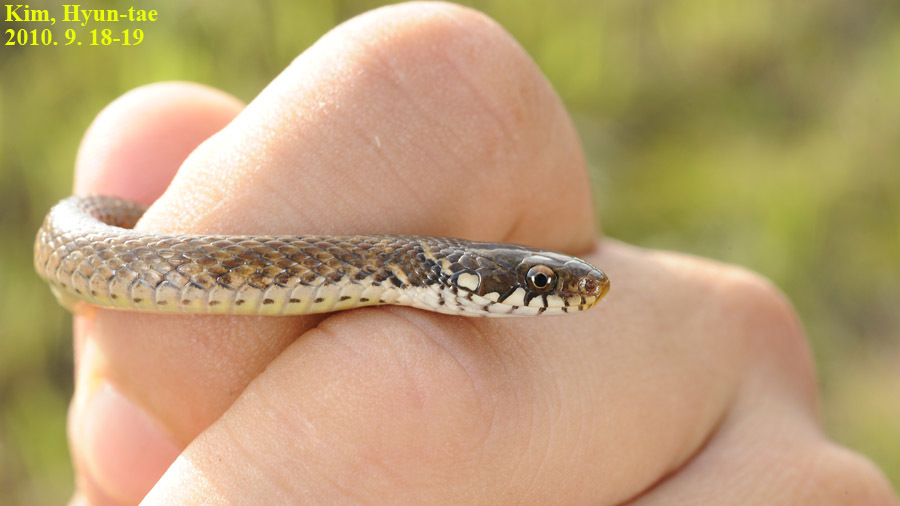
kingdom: Animalia
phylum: Chordata
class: Squamata
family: Colubridae
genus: Hebius
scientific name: Hebius vibakari
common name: Japanese keelback
